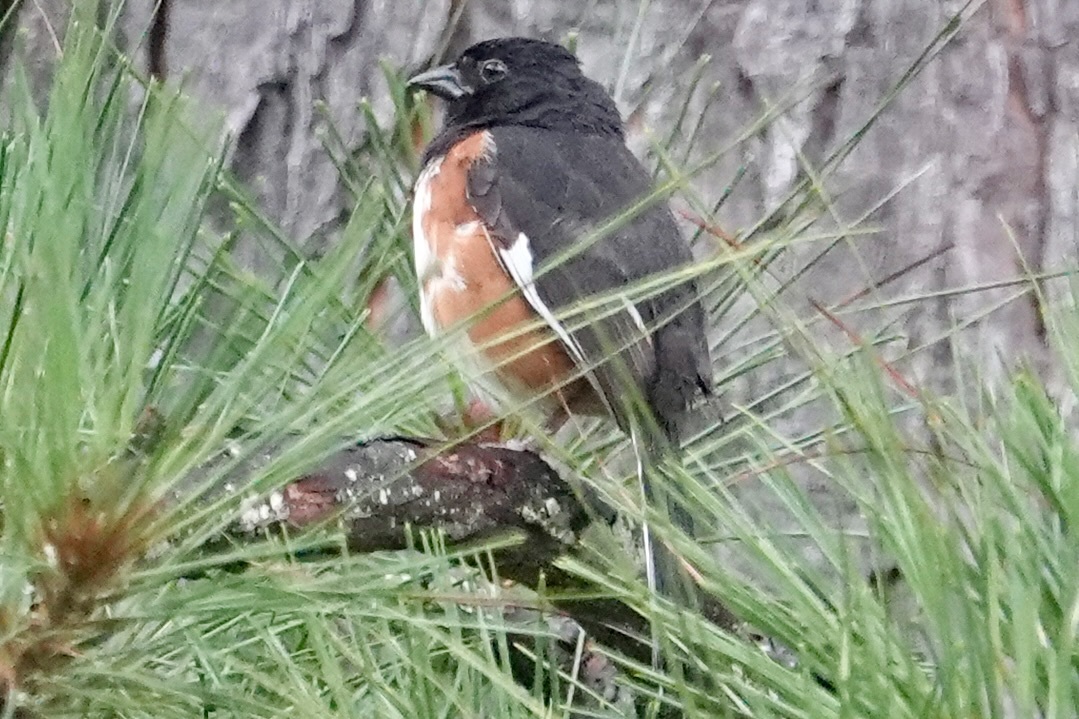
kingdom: Animalia
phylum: Chordata
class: Aves
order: Passeriformes
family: Passerellidae
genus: Pipilo
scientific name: Pipilo erythrophthalmus
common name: Eastern towhee
